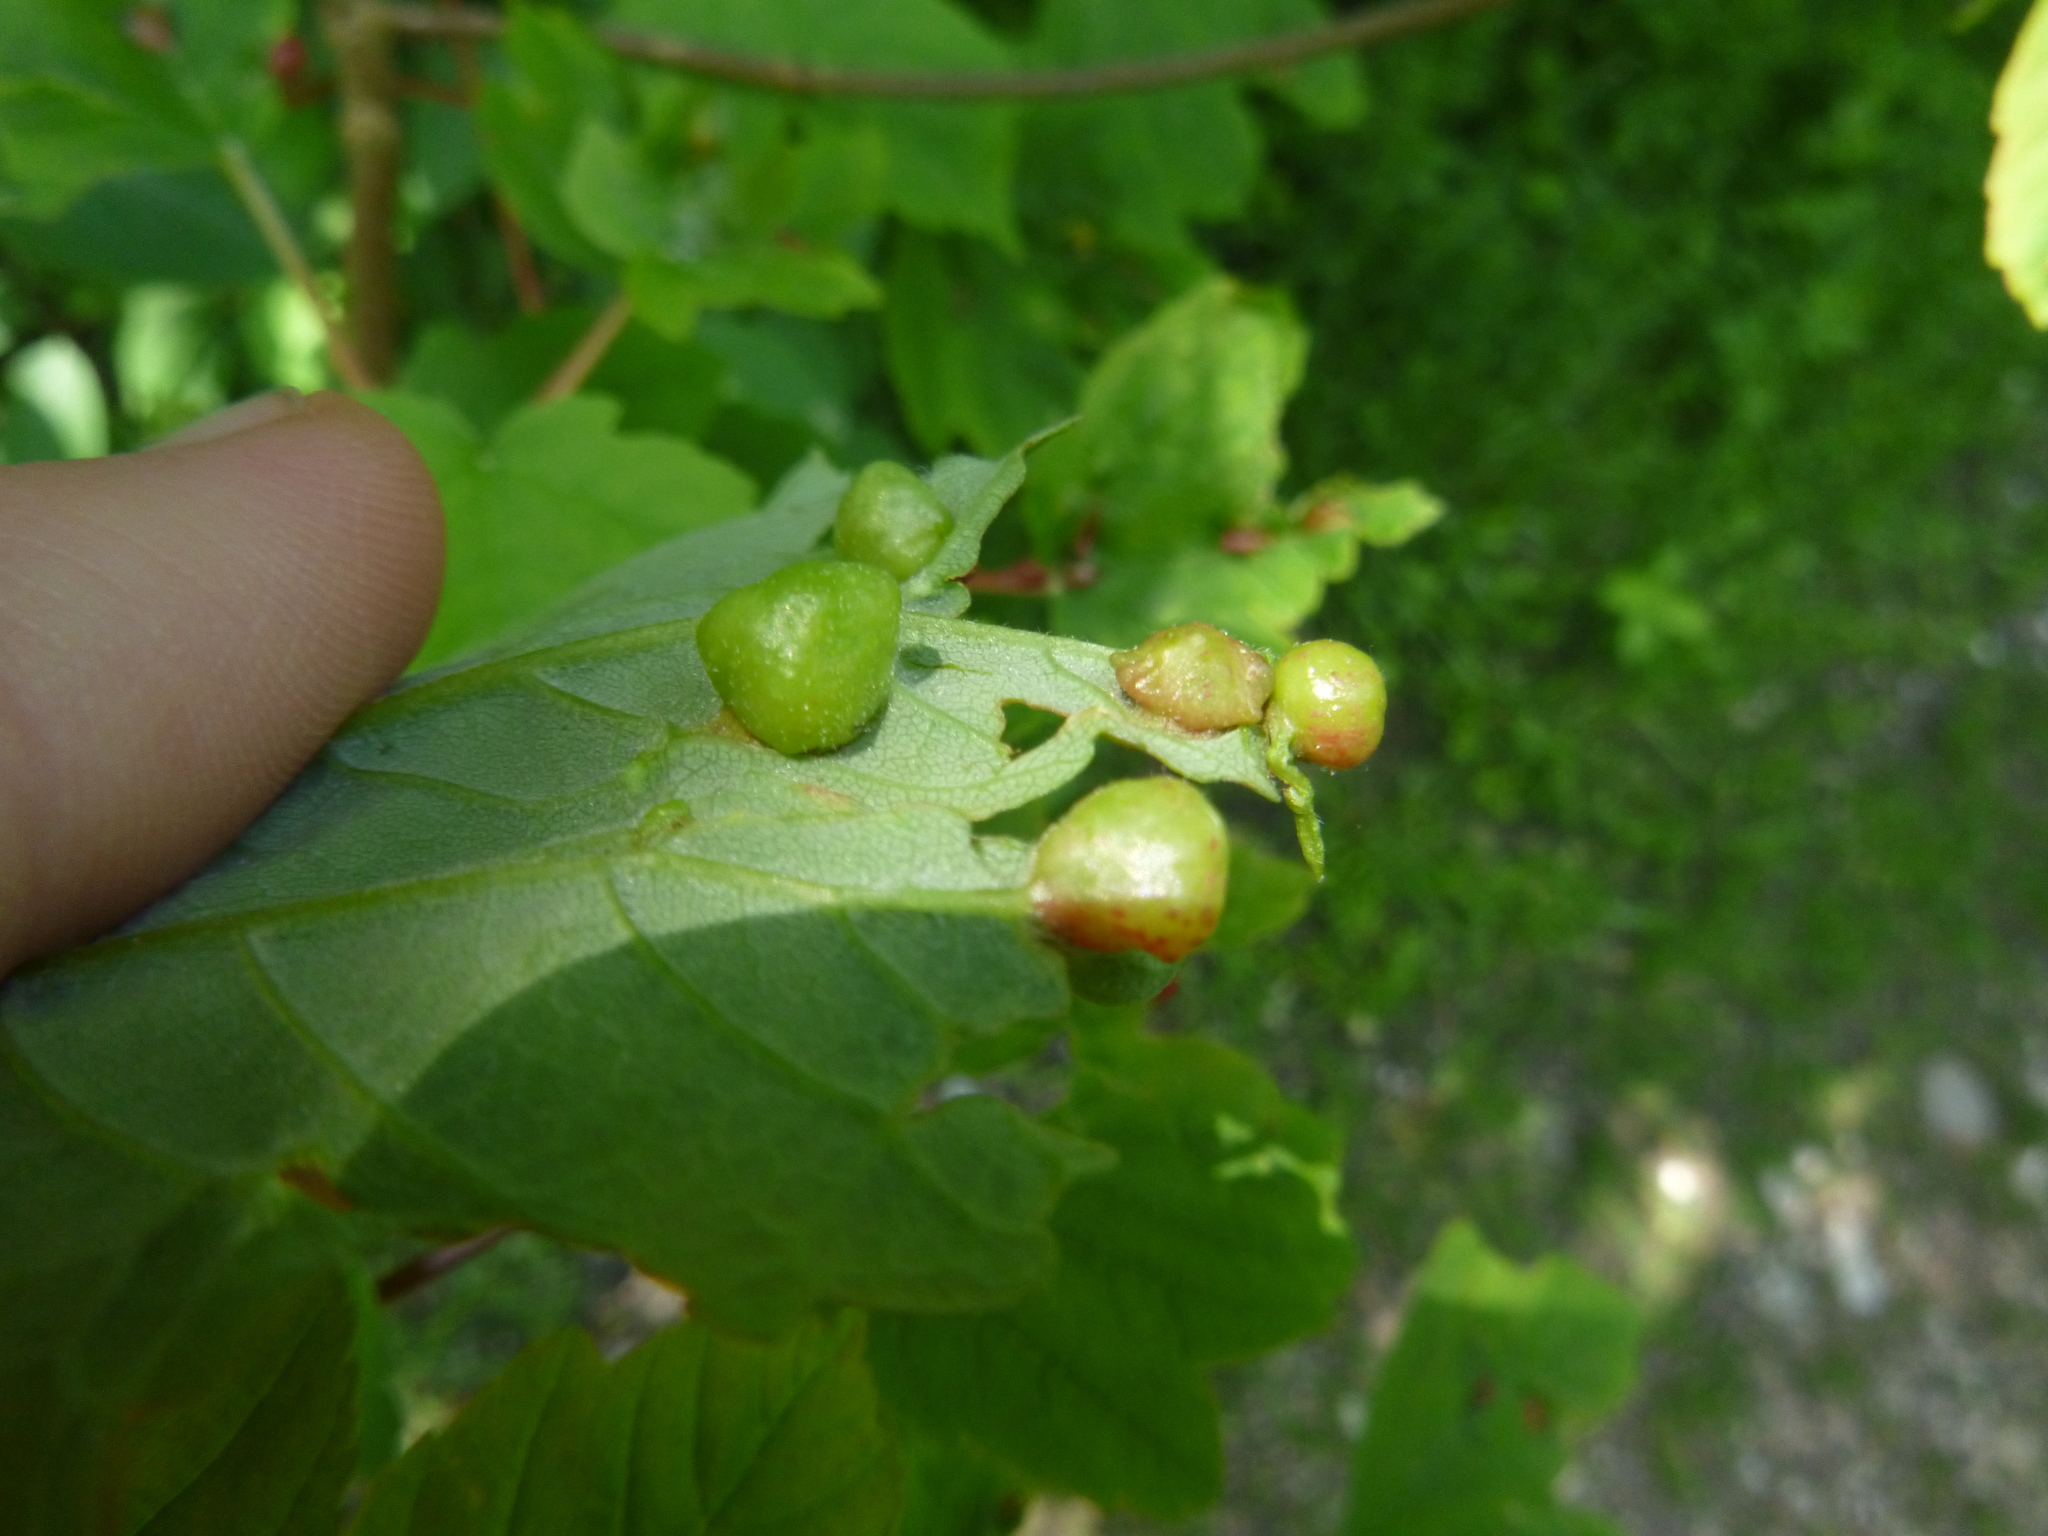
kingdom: Animalia
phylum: Arthropoda
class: Insecta
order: Hymenoptera
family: Cynipidae
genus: Pediaspis
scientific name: Pediaspis aceris
